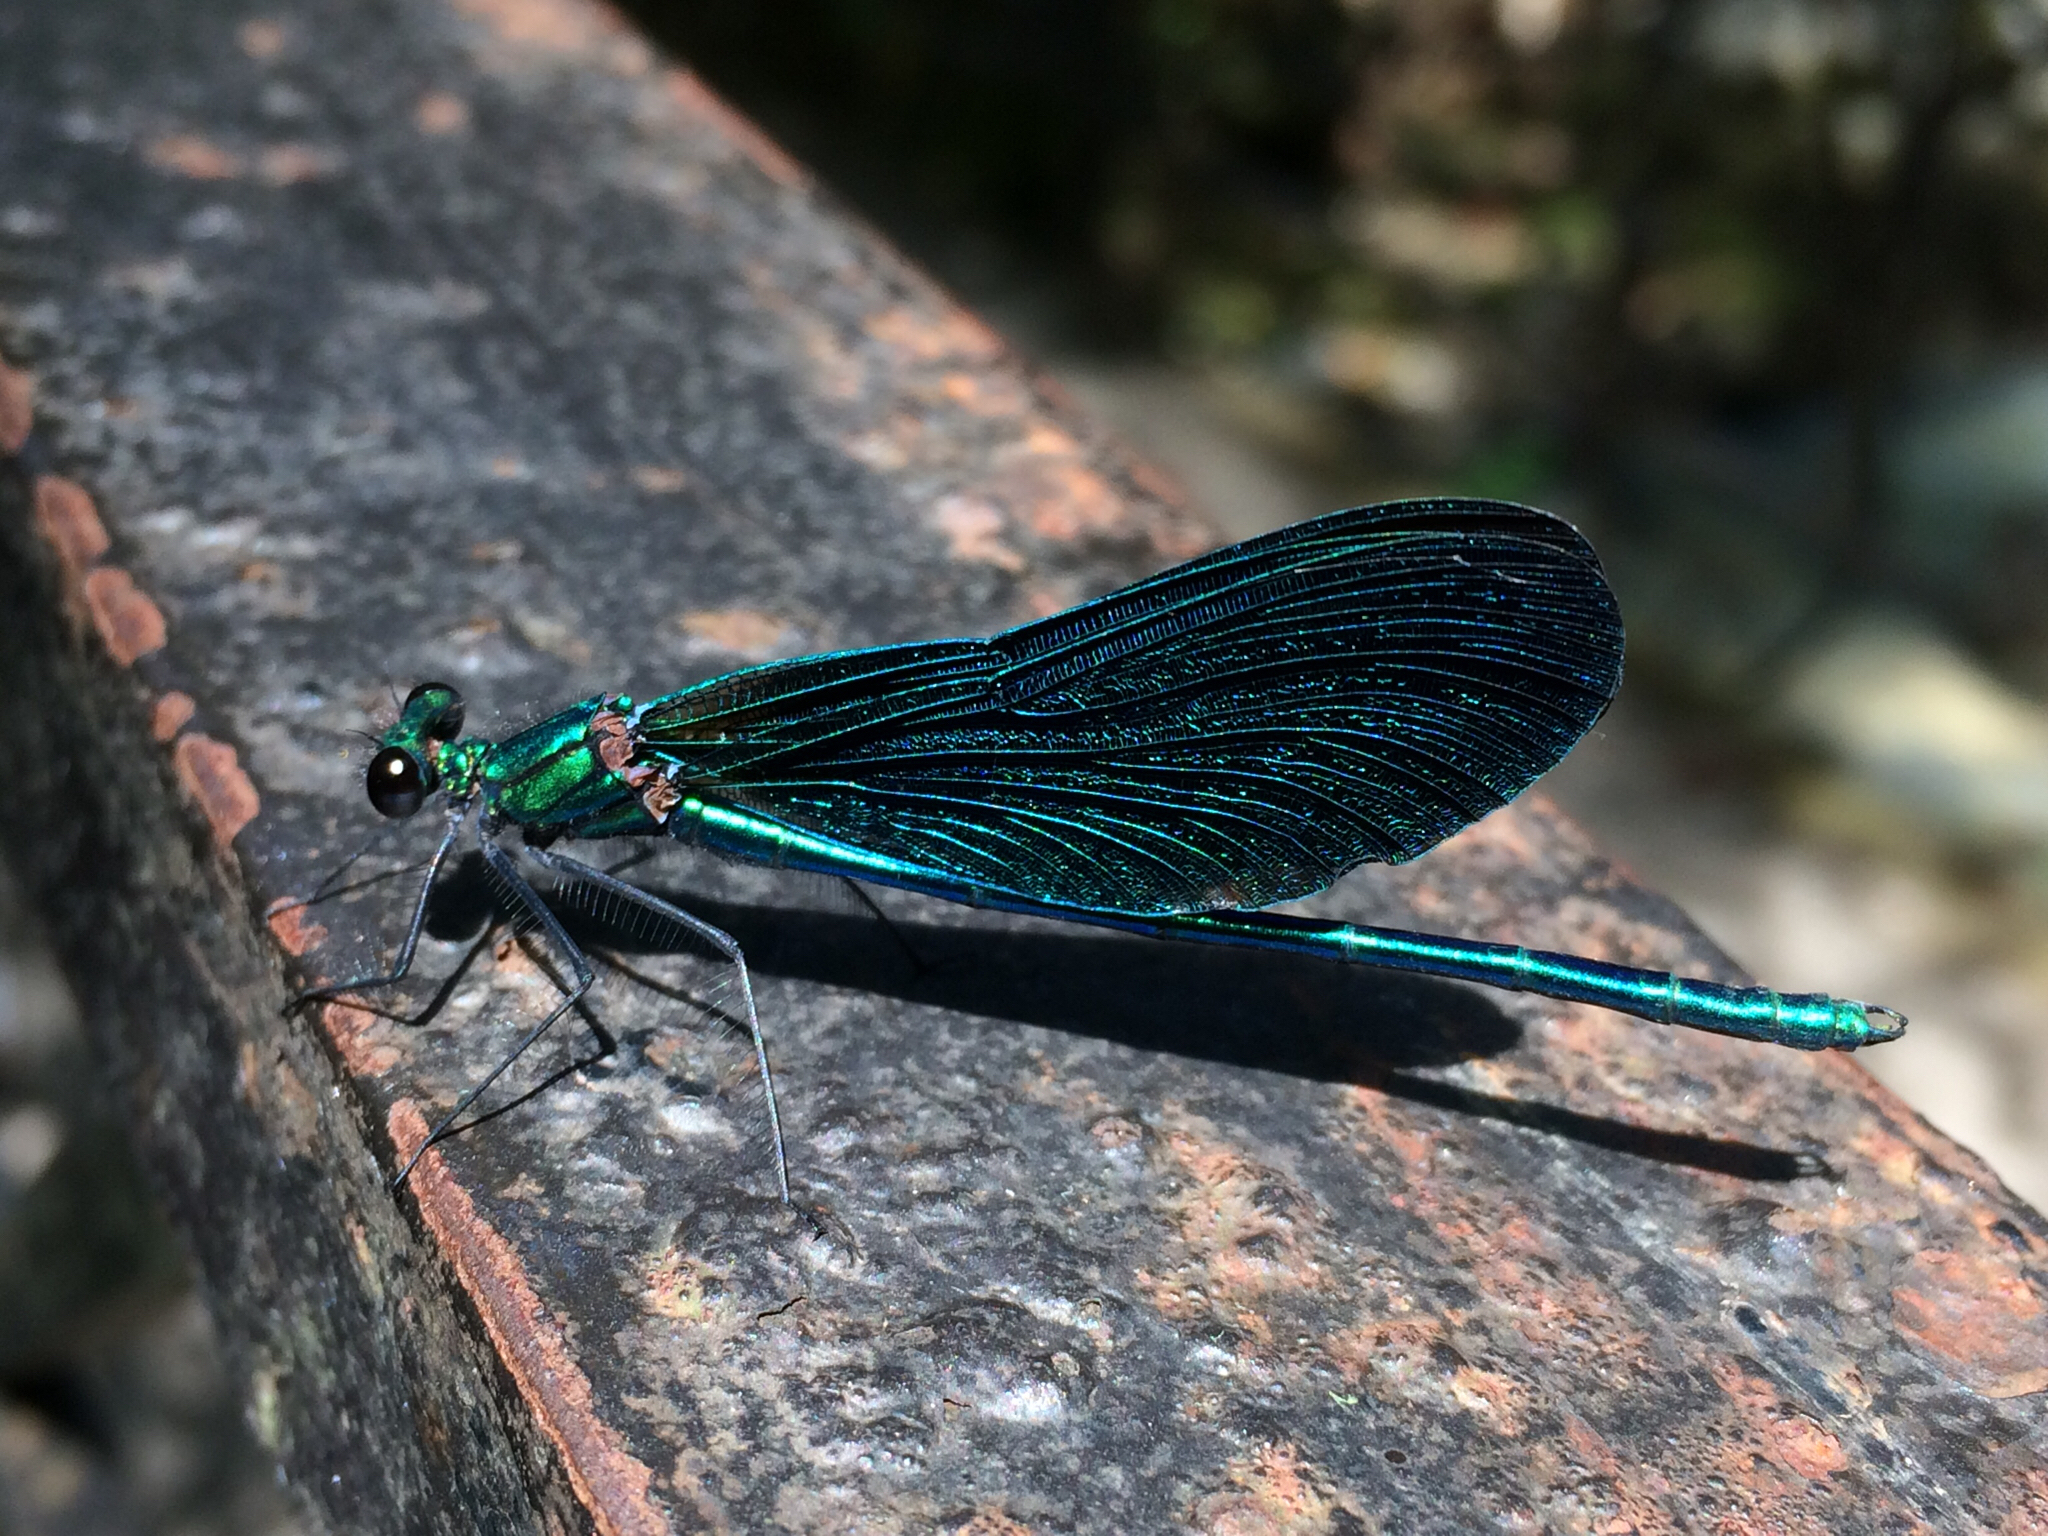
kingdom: Animalia
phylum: Arthropoda
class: Insecta
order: Odonata
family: Calopterygidae
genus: Calopteryx
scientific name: Calopteryx virgo
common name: Beautiful demoiselle
